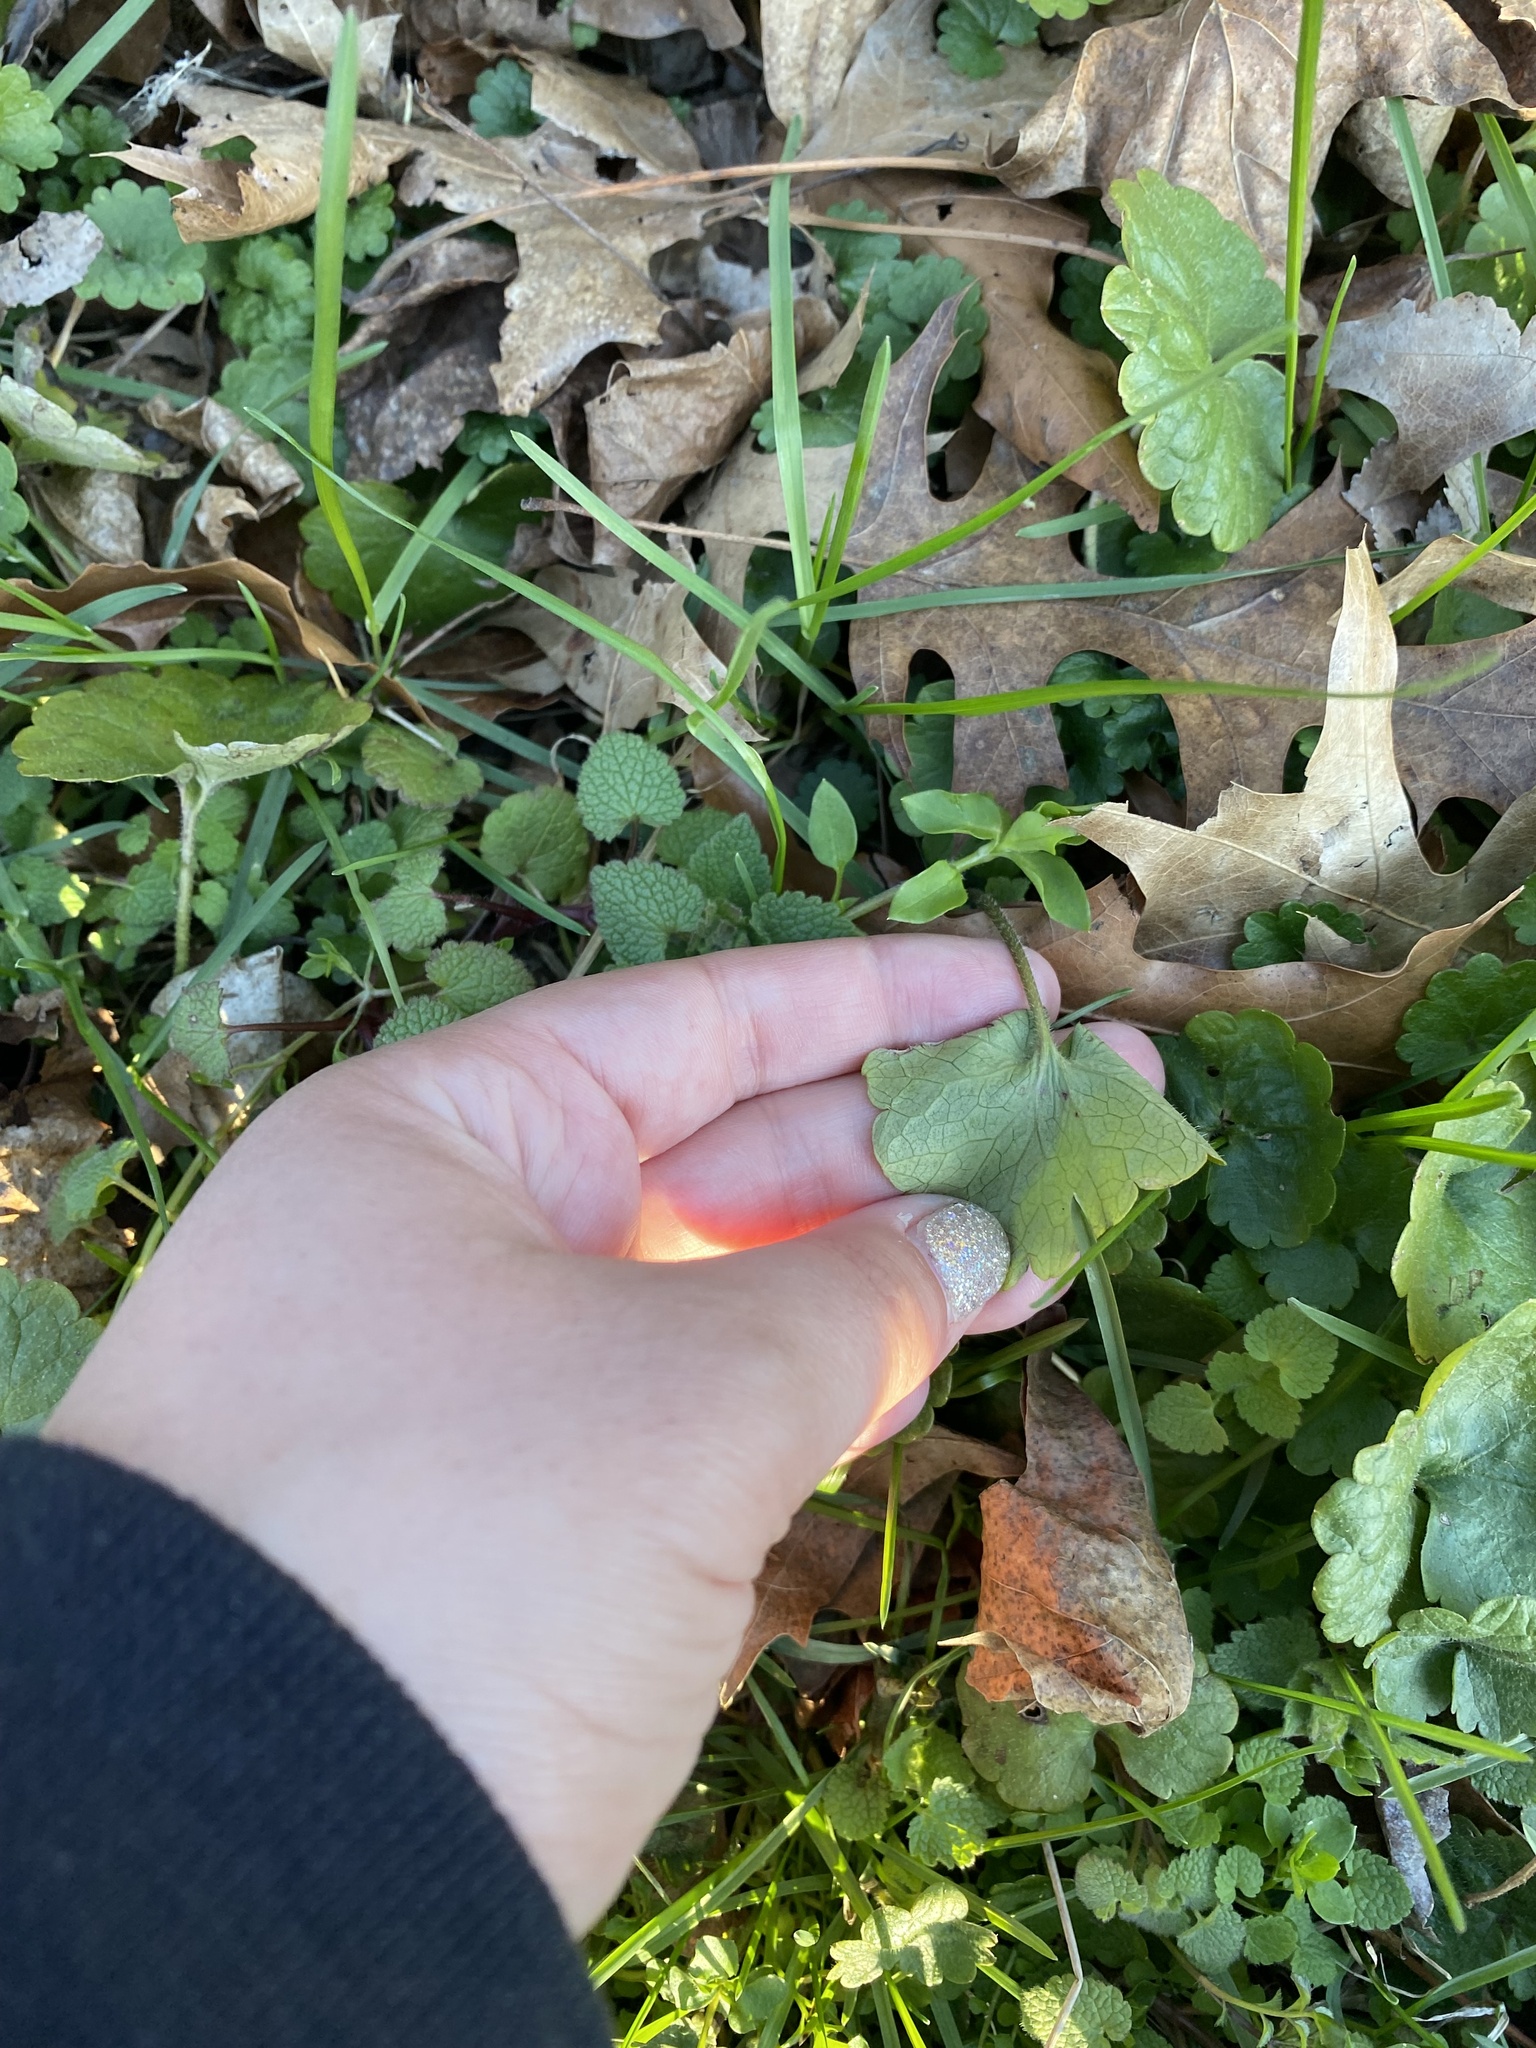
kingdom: Plantae
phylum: Tracheophyta
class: Magnoliopsida
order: Lamiales
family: Lamiaceae
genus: Glechoma
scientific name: Glechoma hederacea
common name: Ground ivy
